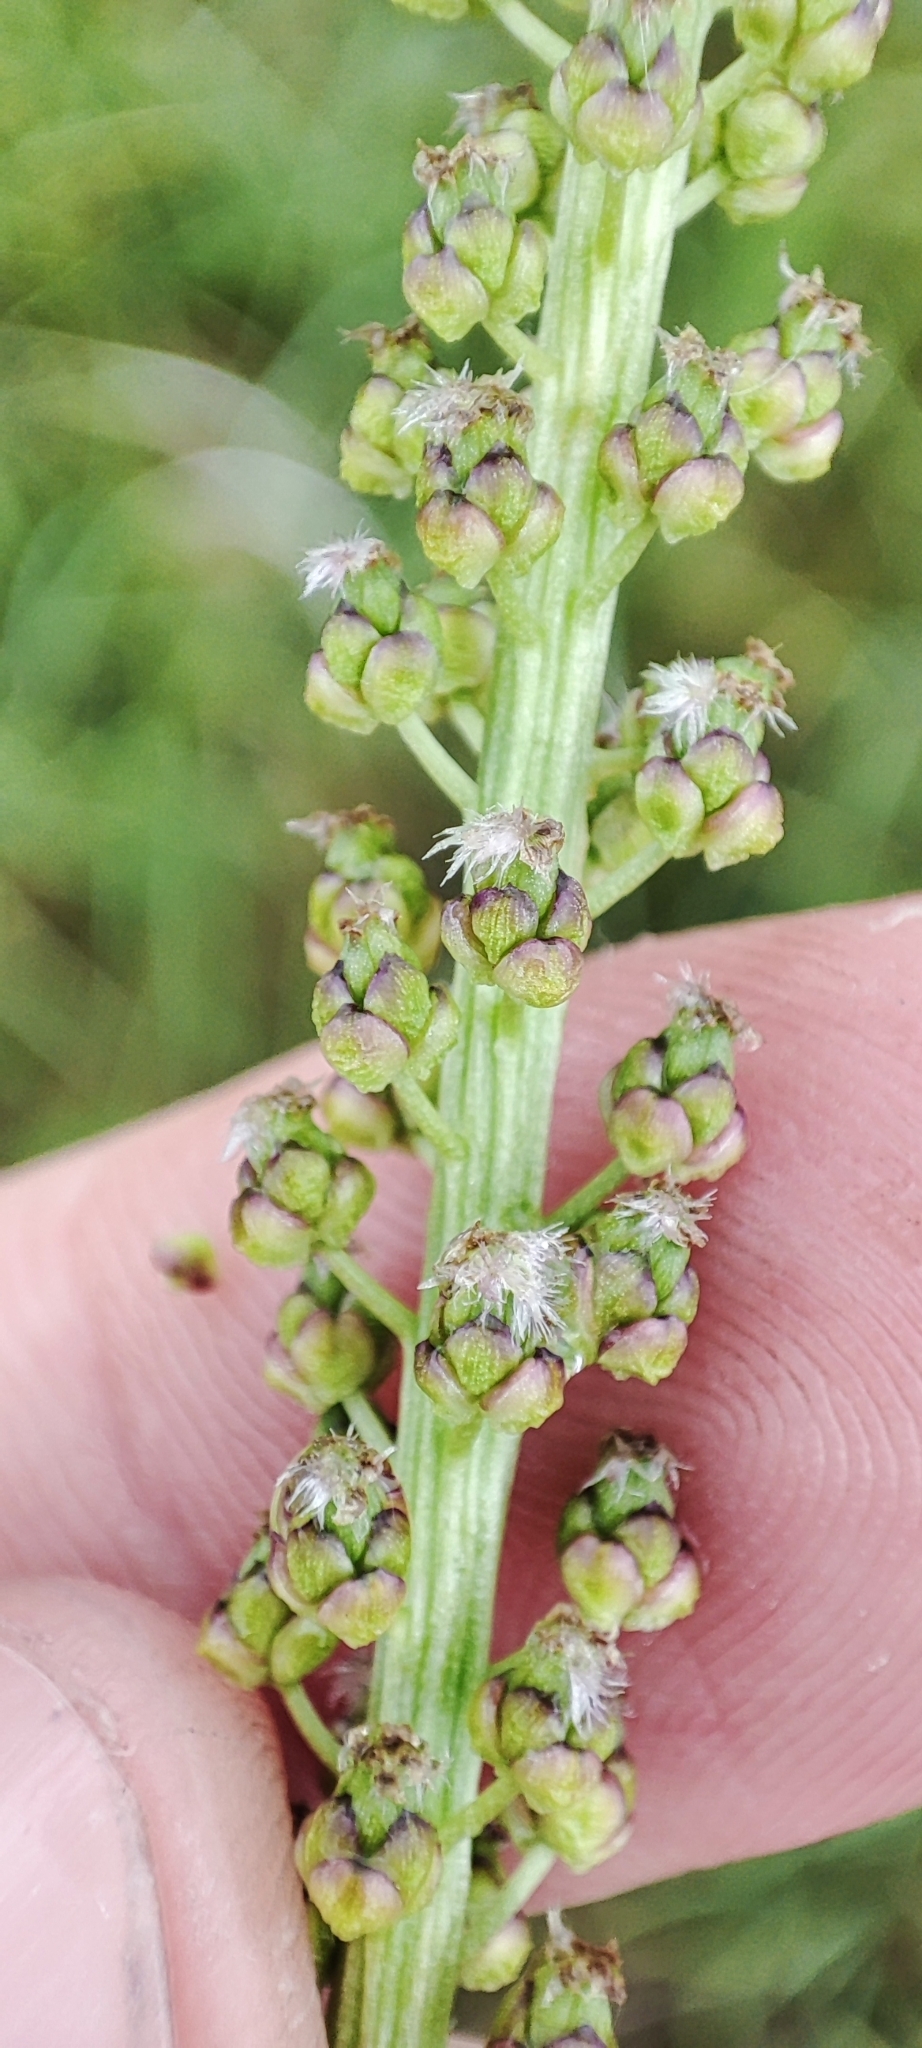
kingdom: Plantae
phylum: Tracheophyta
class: Liliopsida
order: Alismatales
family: Juncaginaceae
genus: Triglochin
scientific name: Triglochin maritima
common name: Sea arrowgrass
